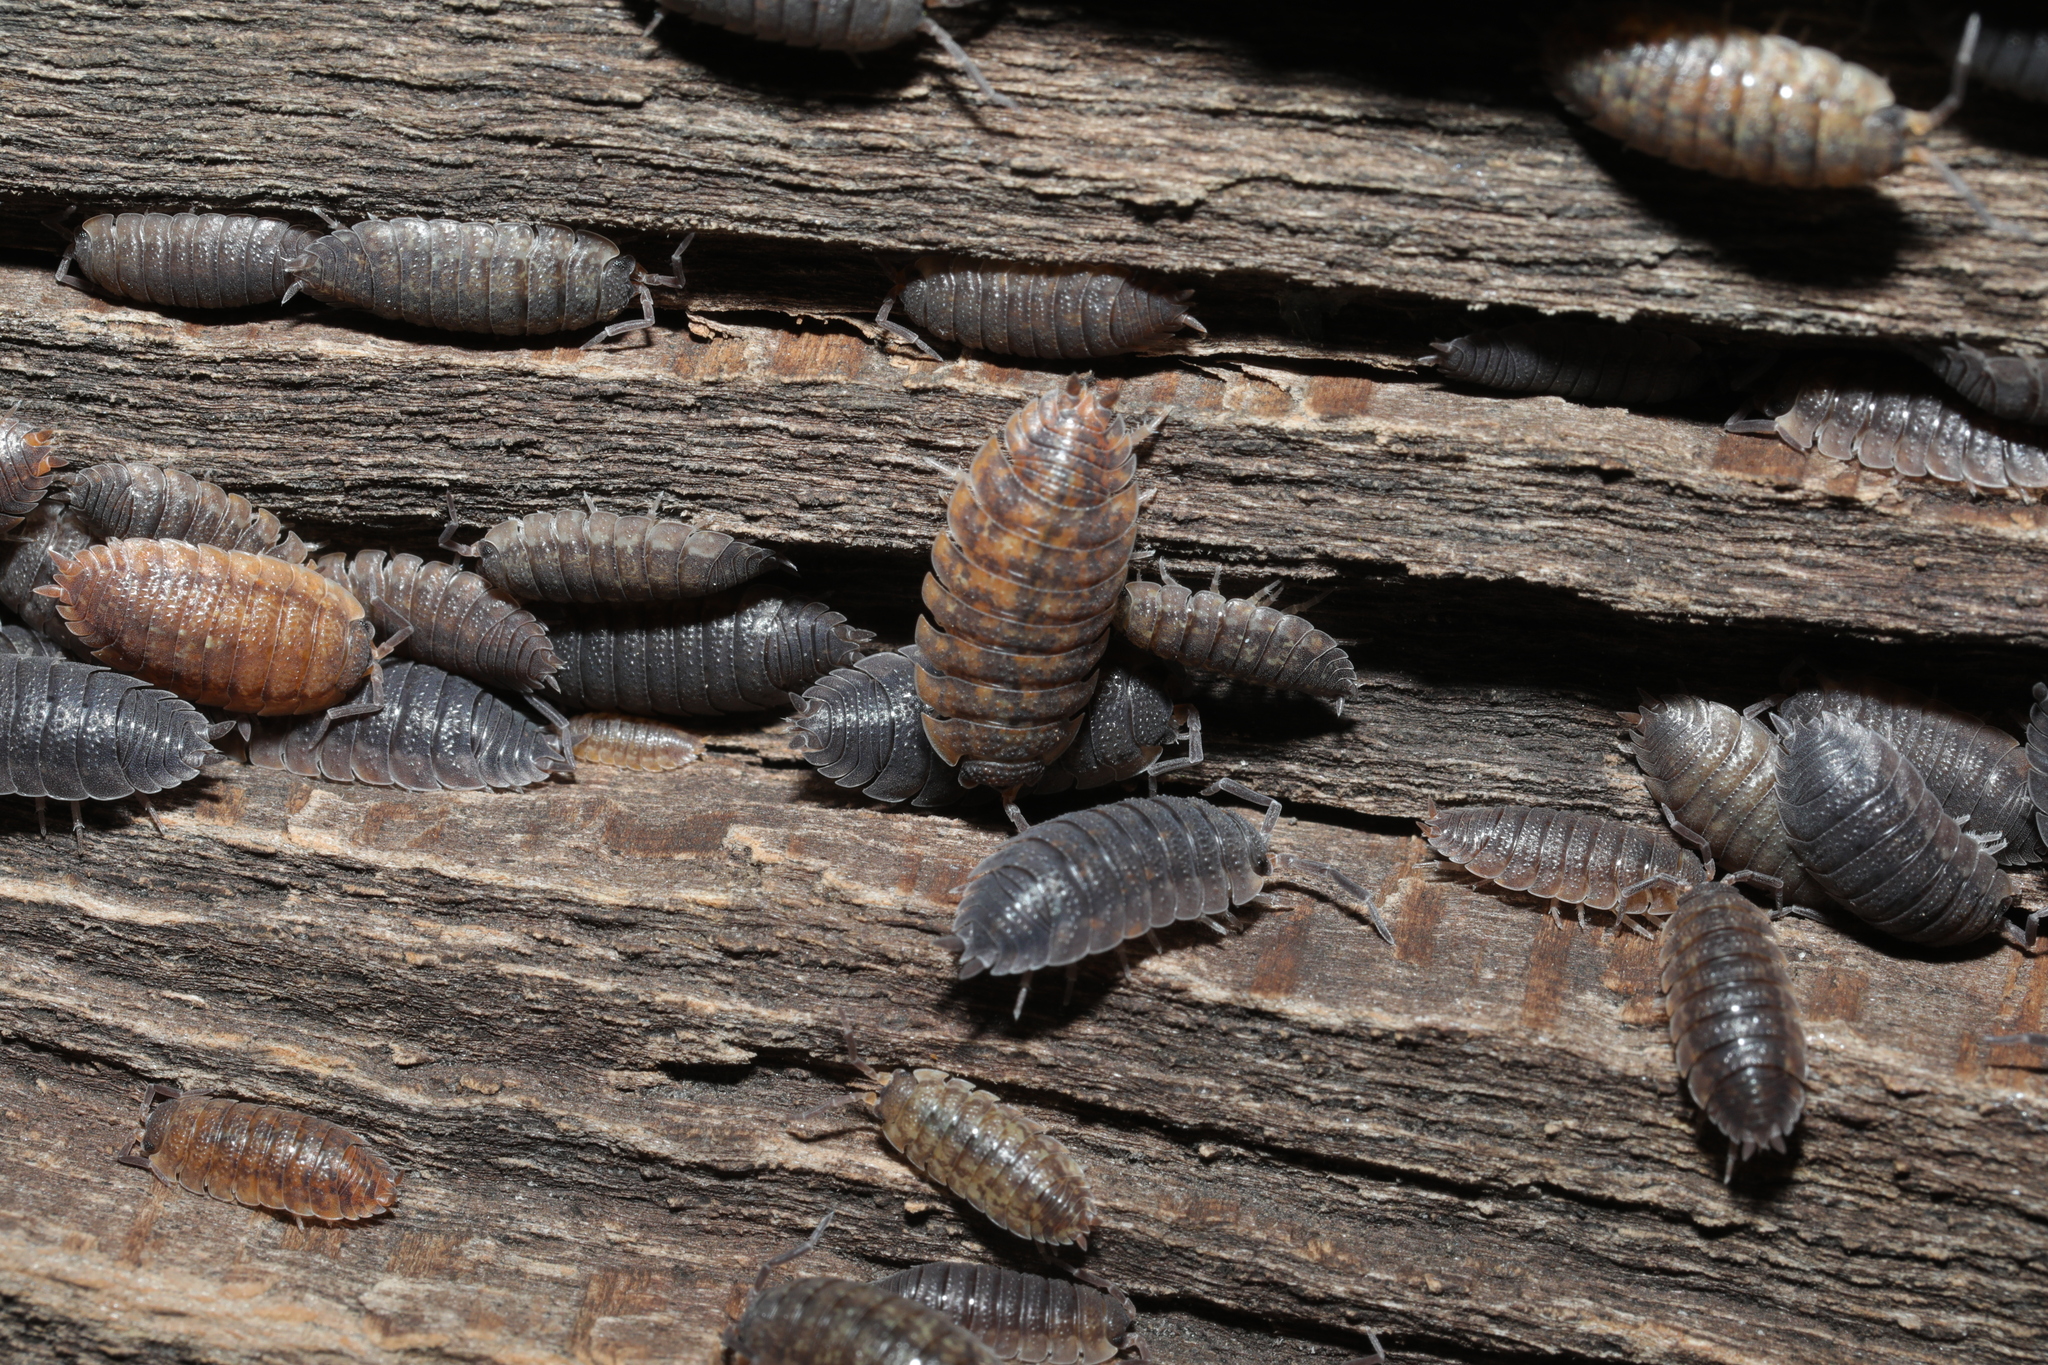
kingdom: Animalia
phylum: Arthropoda
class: Malacostraca
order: Isopoda
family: Porcellionidae
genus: Porcellio
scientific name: Porcellio scaber
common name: Common rough woodlouse
